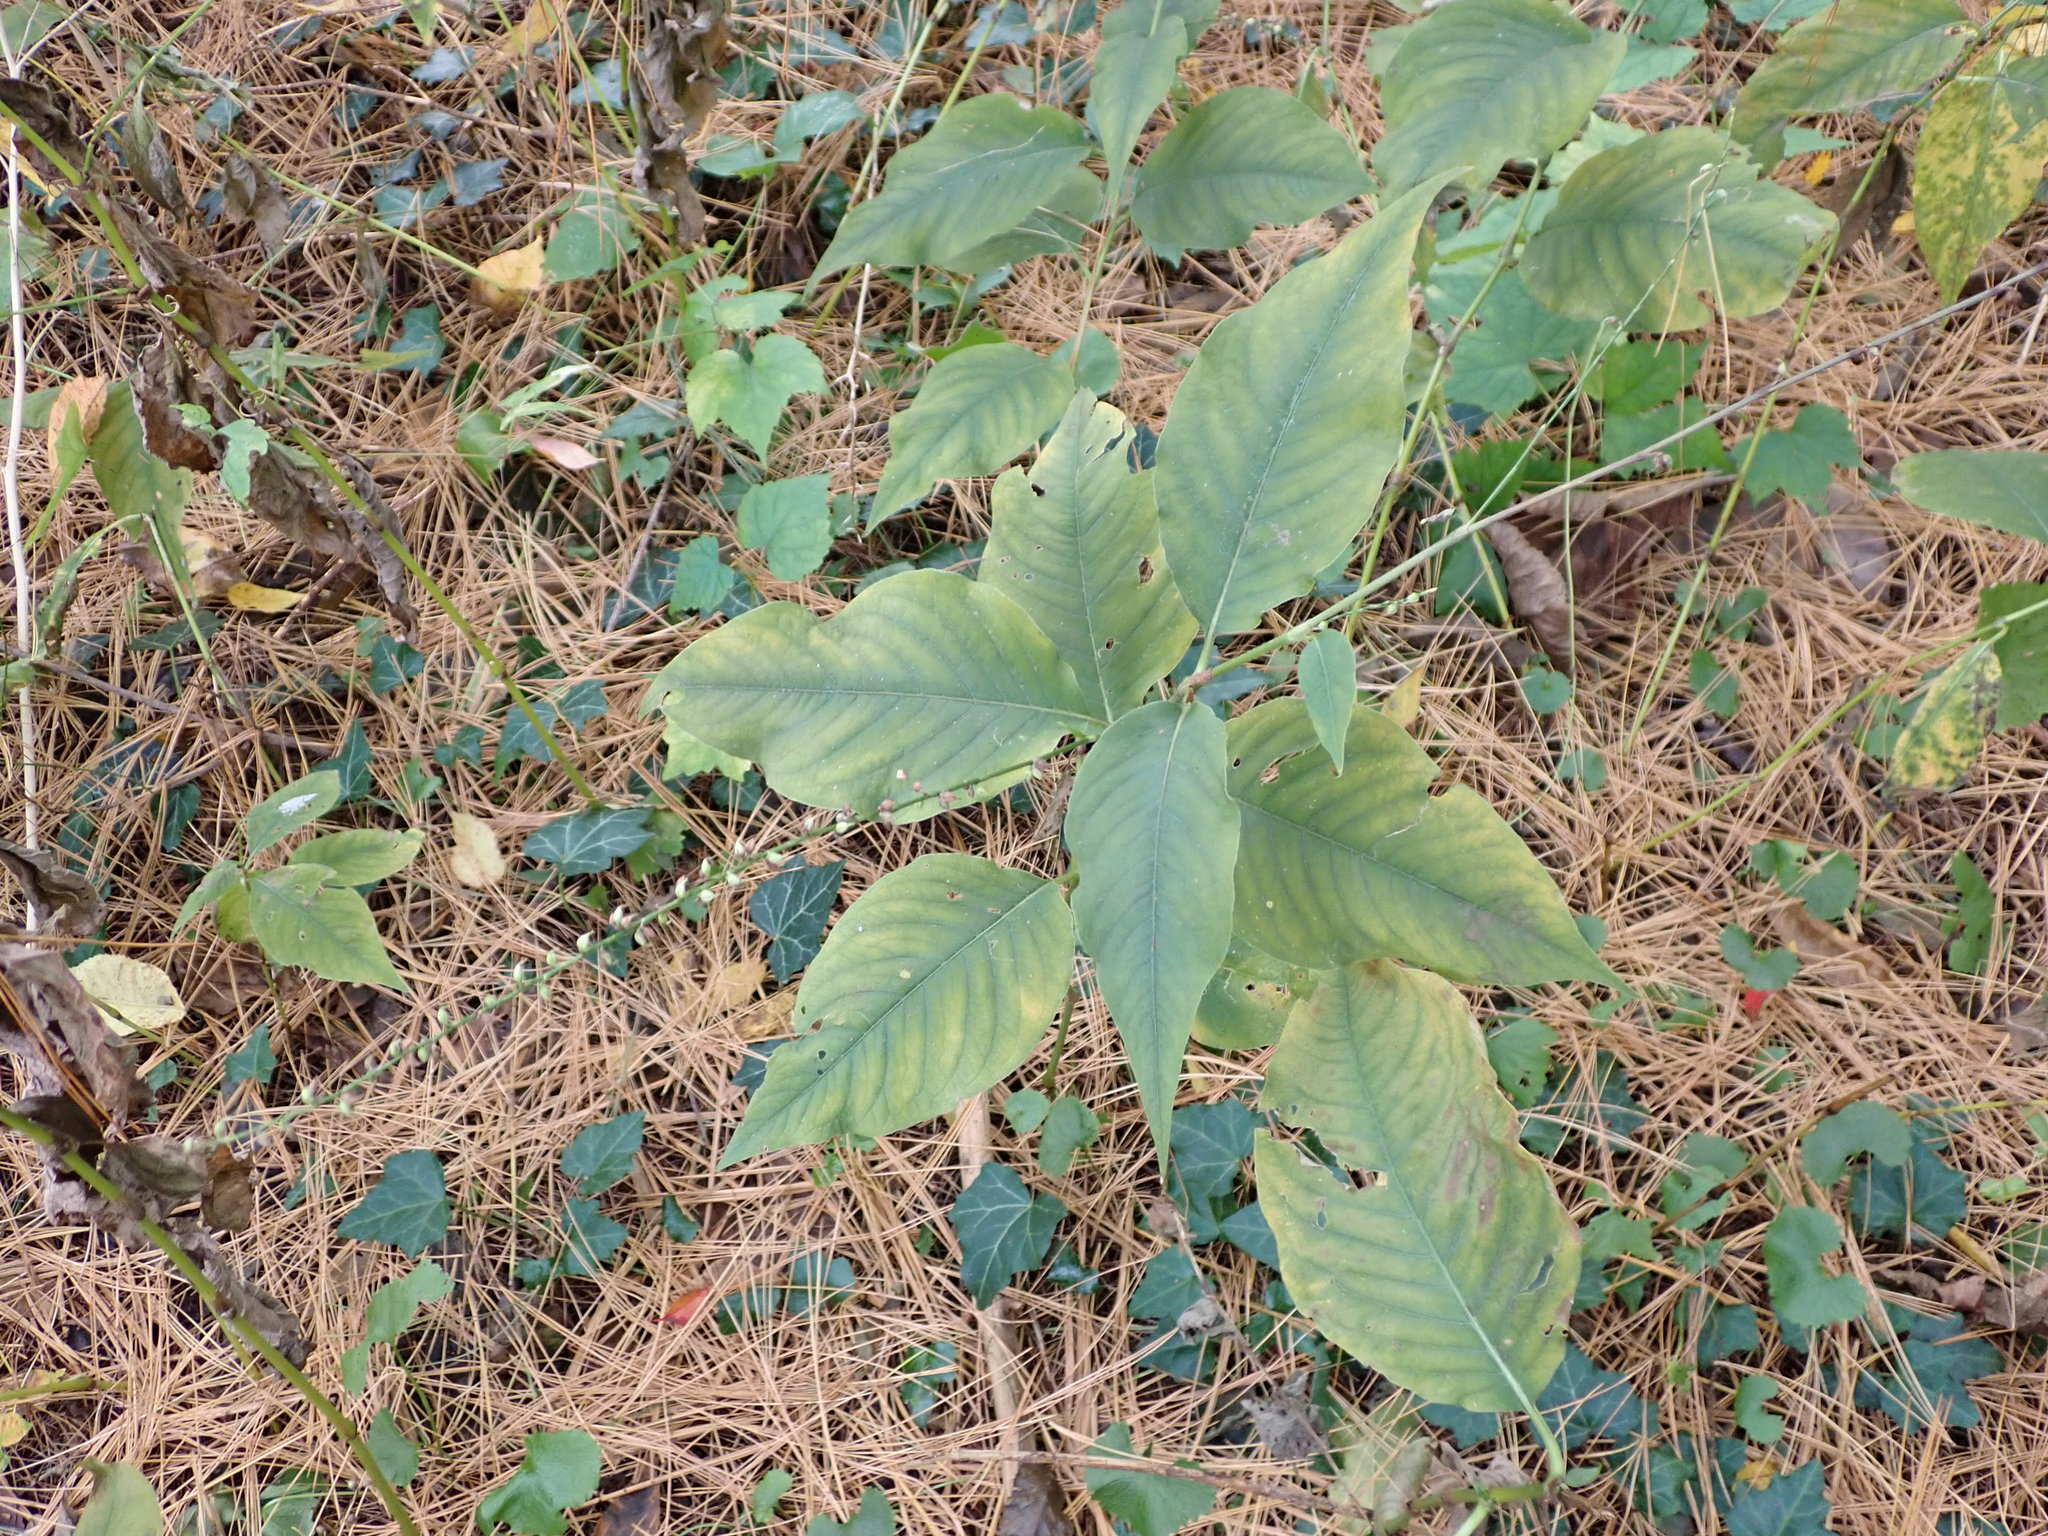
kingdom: Plantae
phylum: Tracheophyta
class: Magnoliopsida
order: Caryophyllales
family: Polygonaceae
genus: Persicaria
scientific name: Persicaria virginiana
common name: Jumpseed
